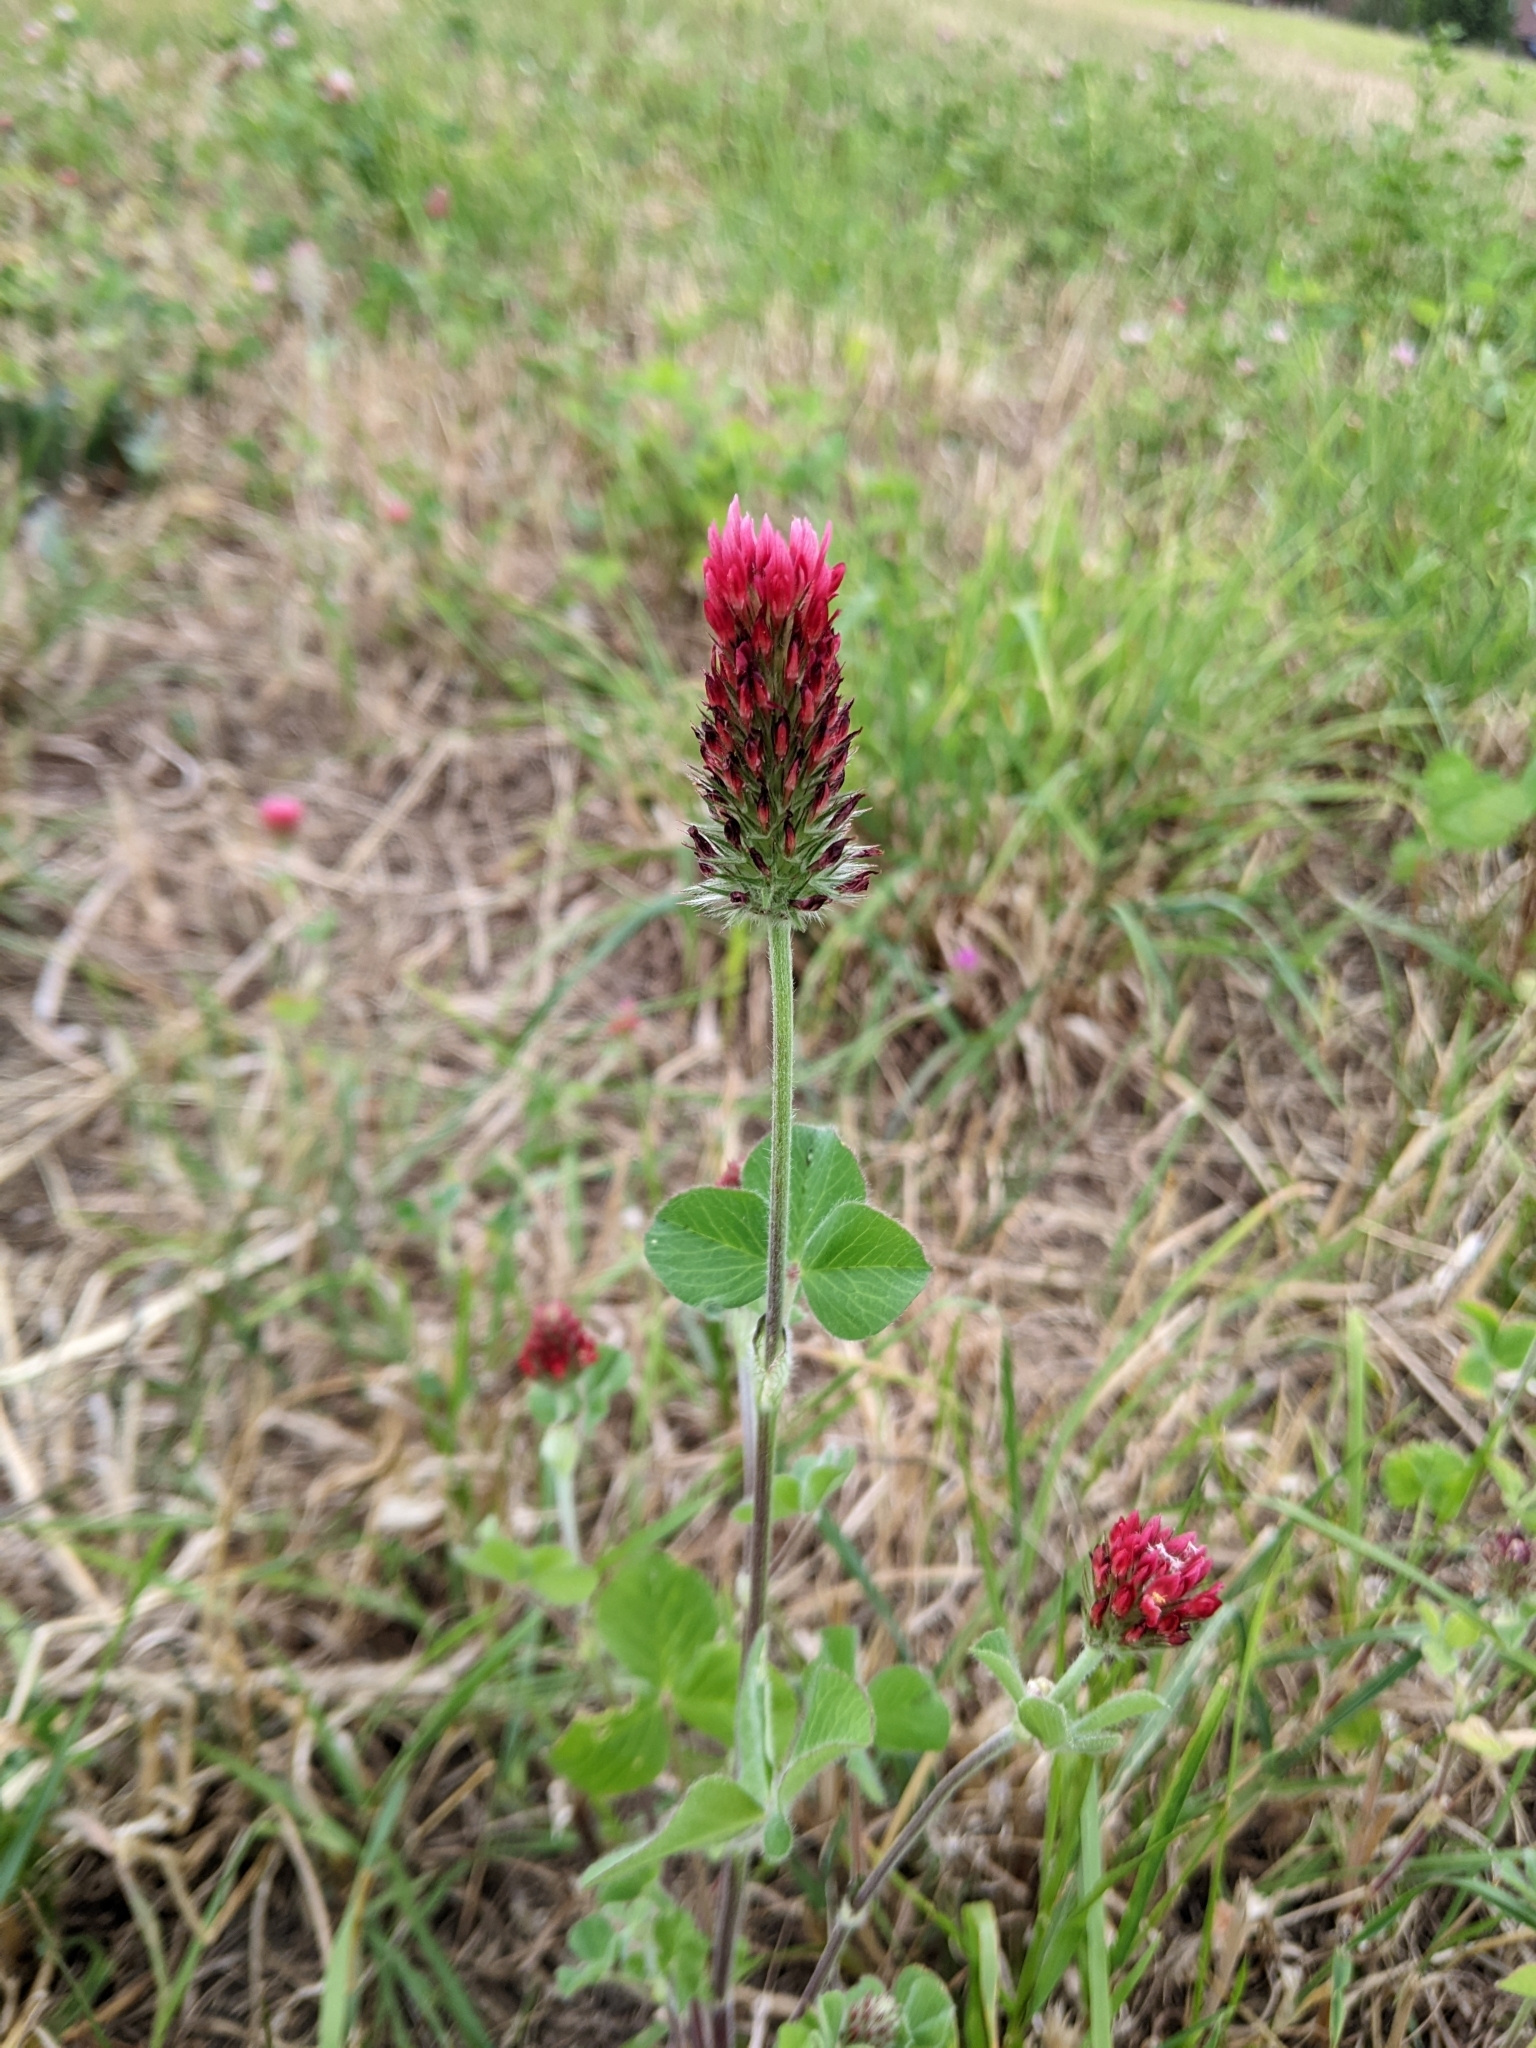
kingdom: Plantae
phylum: Tracheophyta
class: Magnoliopsida
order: Fabales
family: Fabaceae
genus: Trifolium
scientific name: Trifolium incarnatum
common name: Crimson clover
